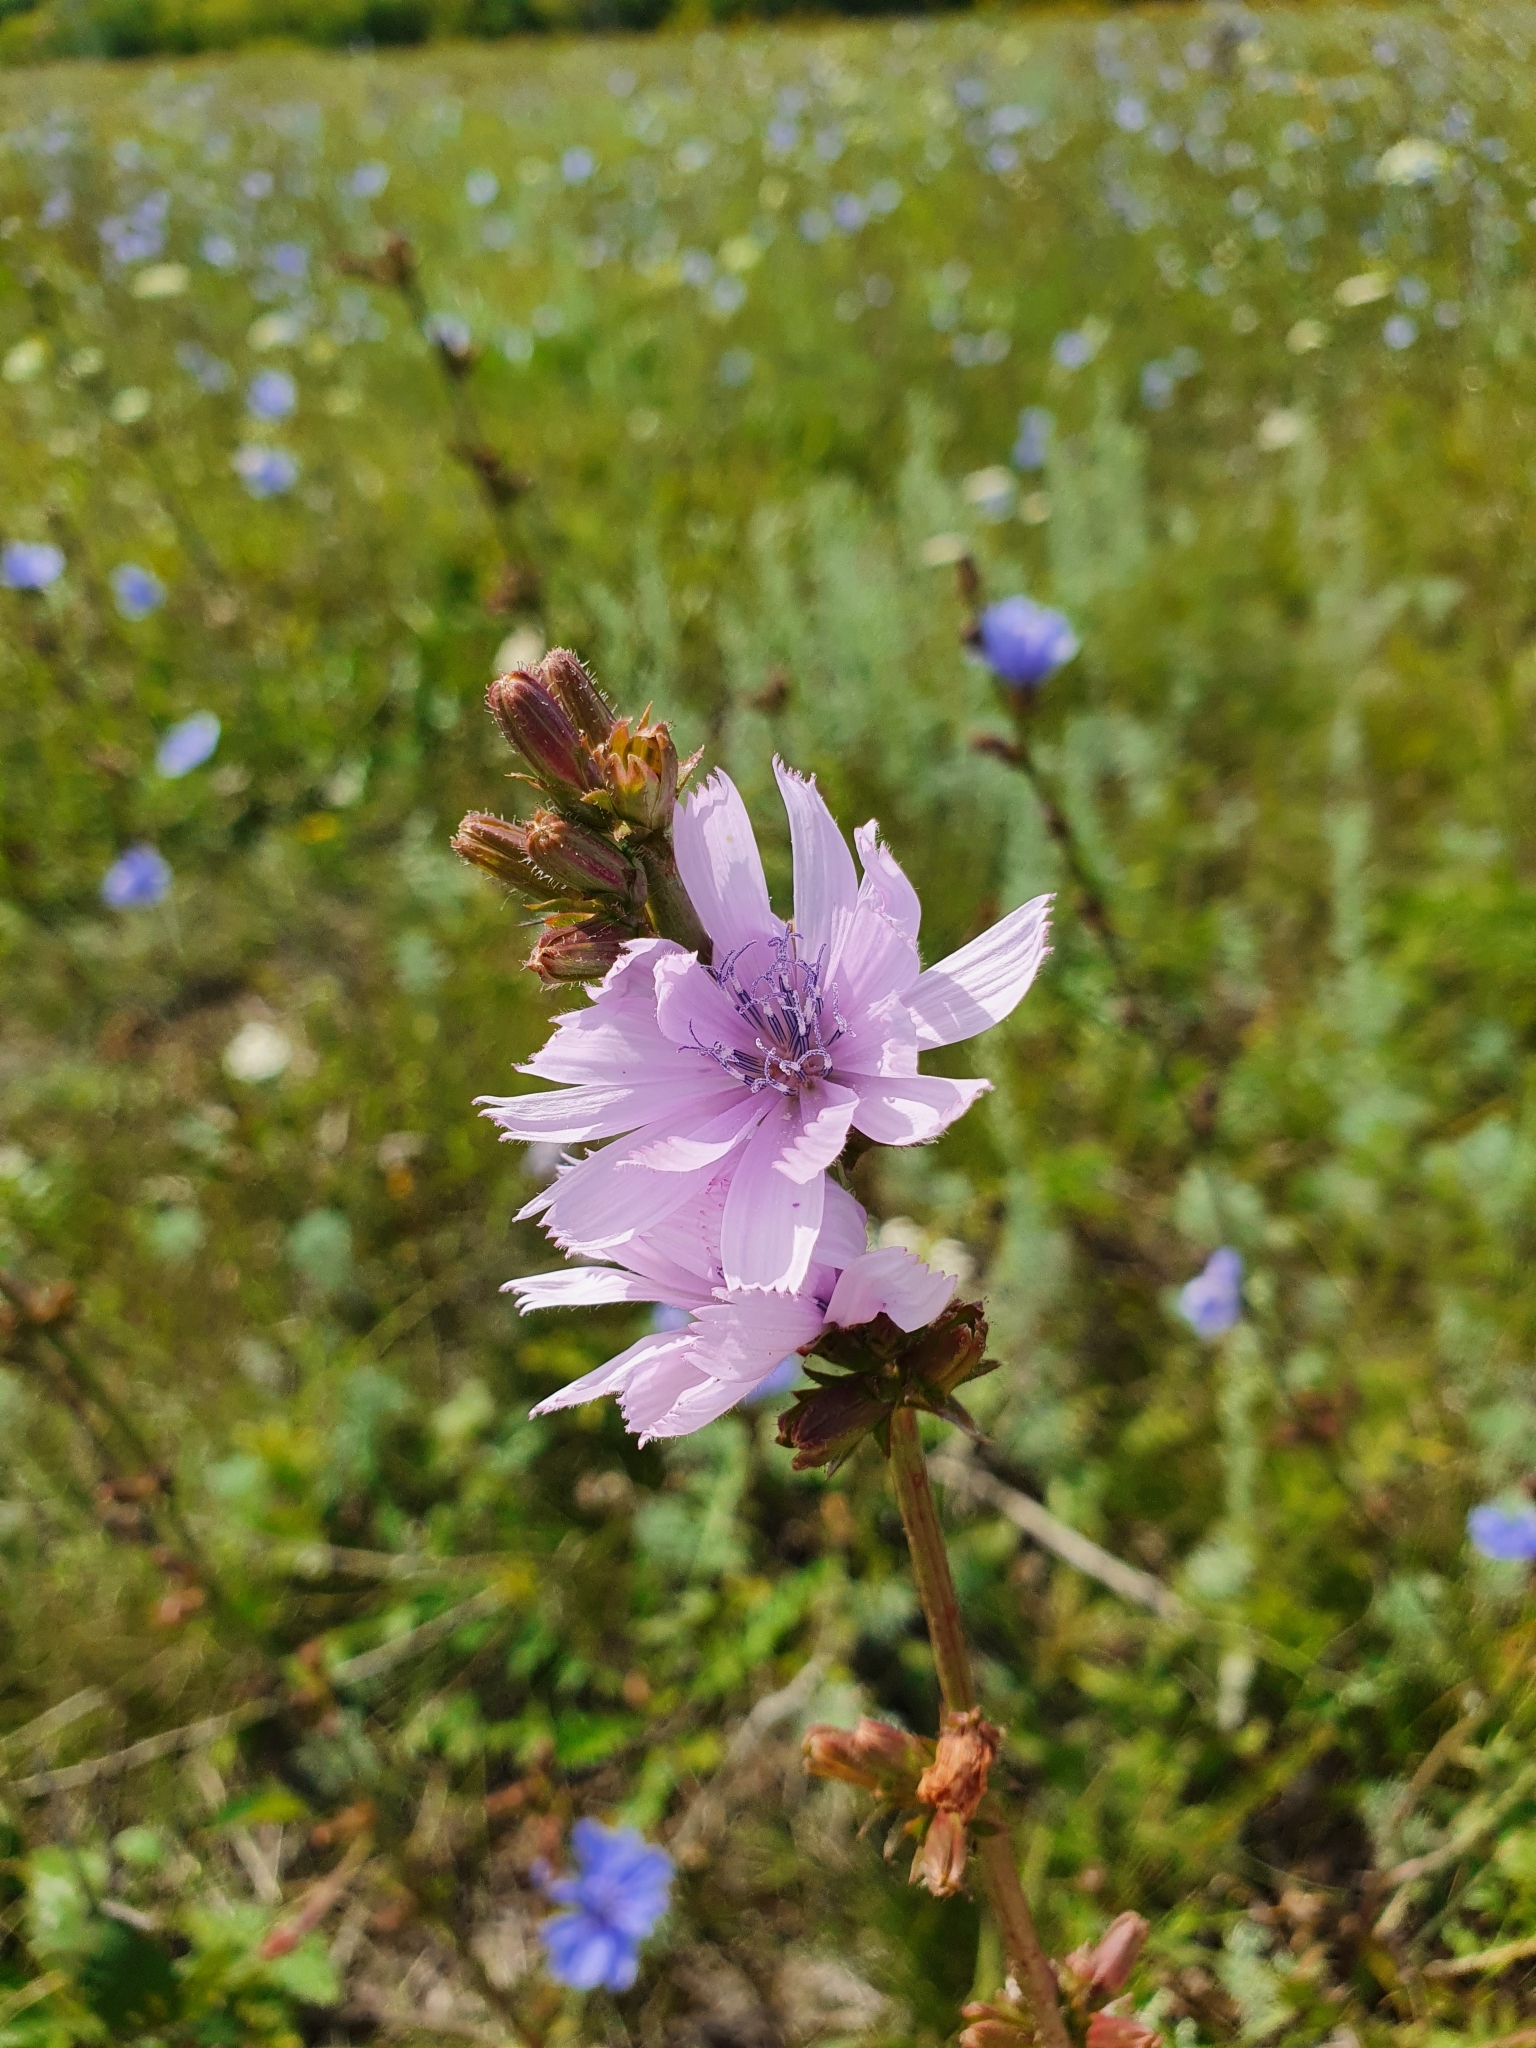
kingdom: Plantae
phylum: Tracheophyta
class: Magnoliopsida
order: Asterales
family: Asteraceae
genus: Cichorium
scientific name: Cichorium intybus
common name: Chicory
